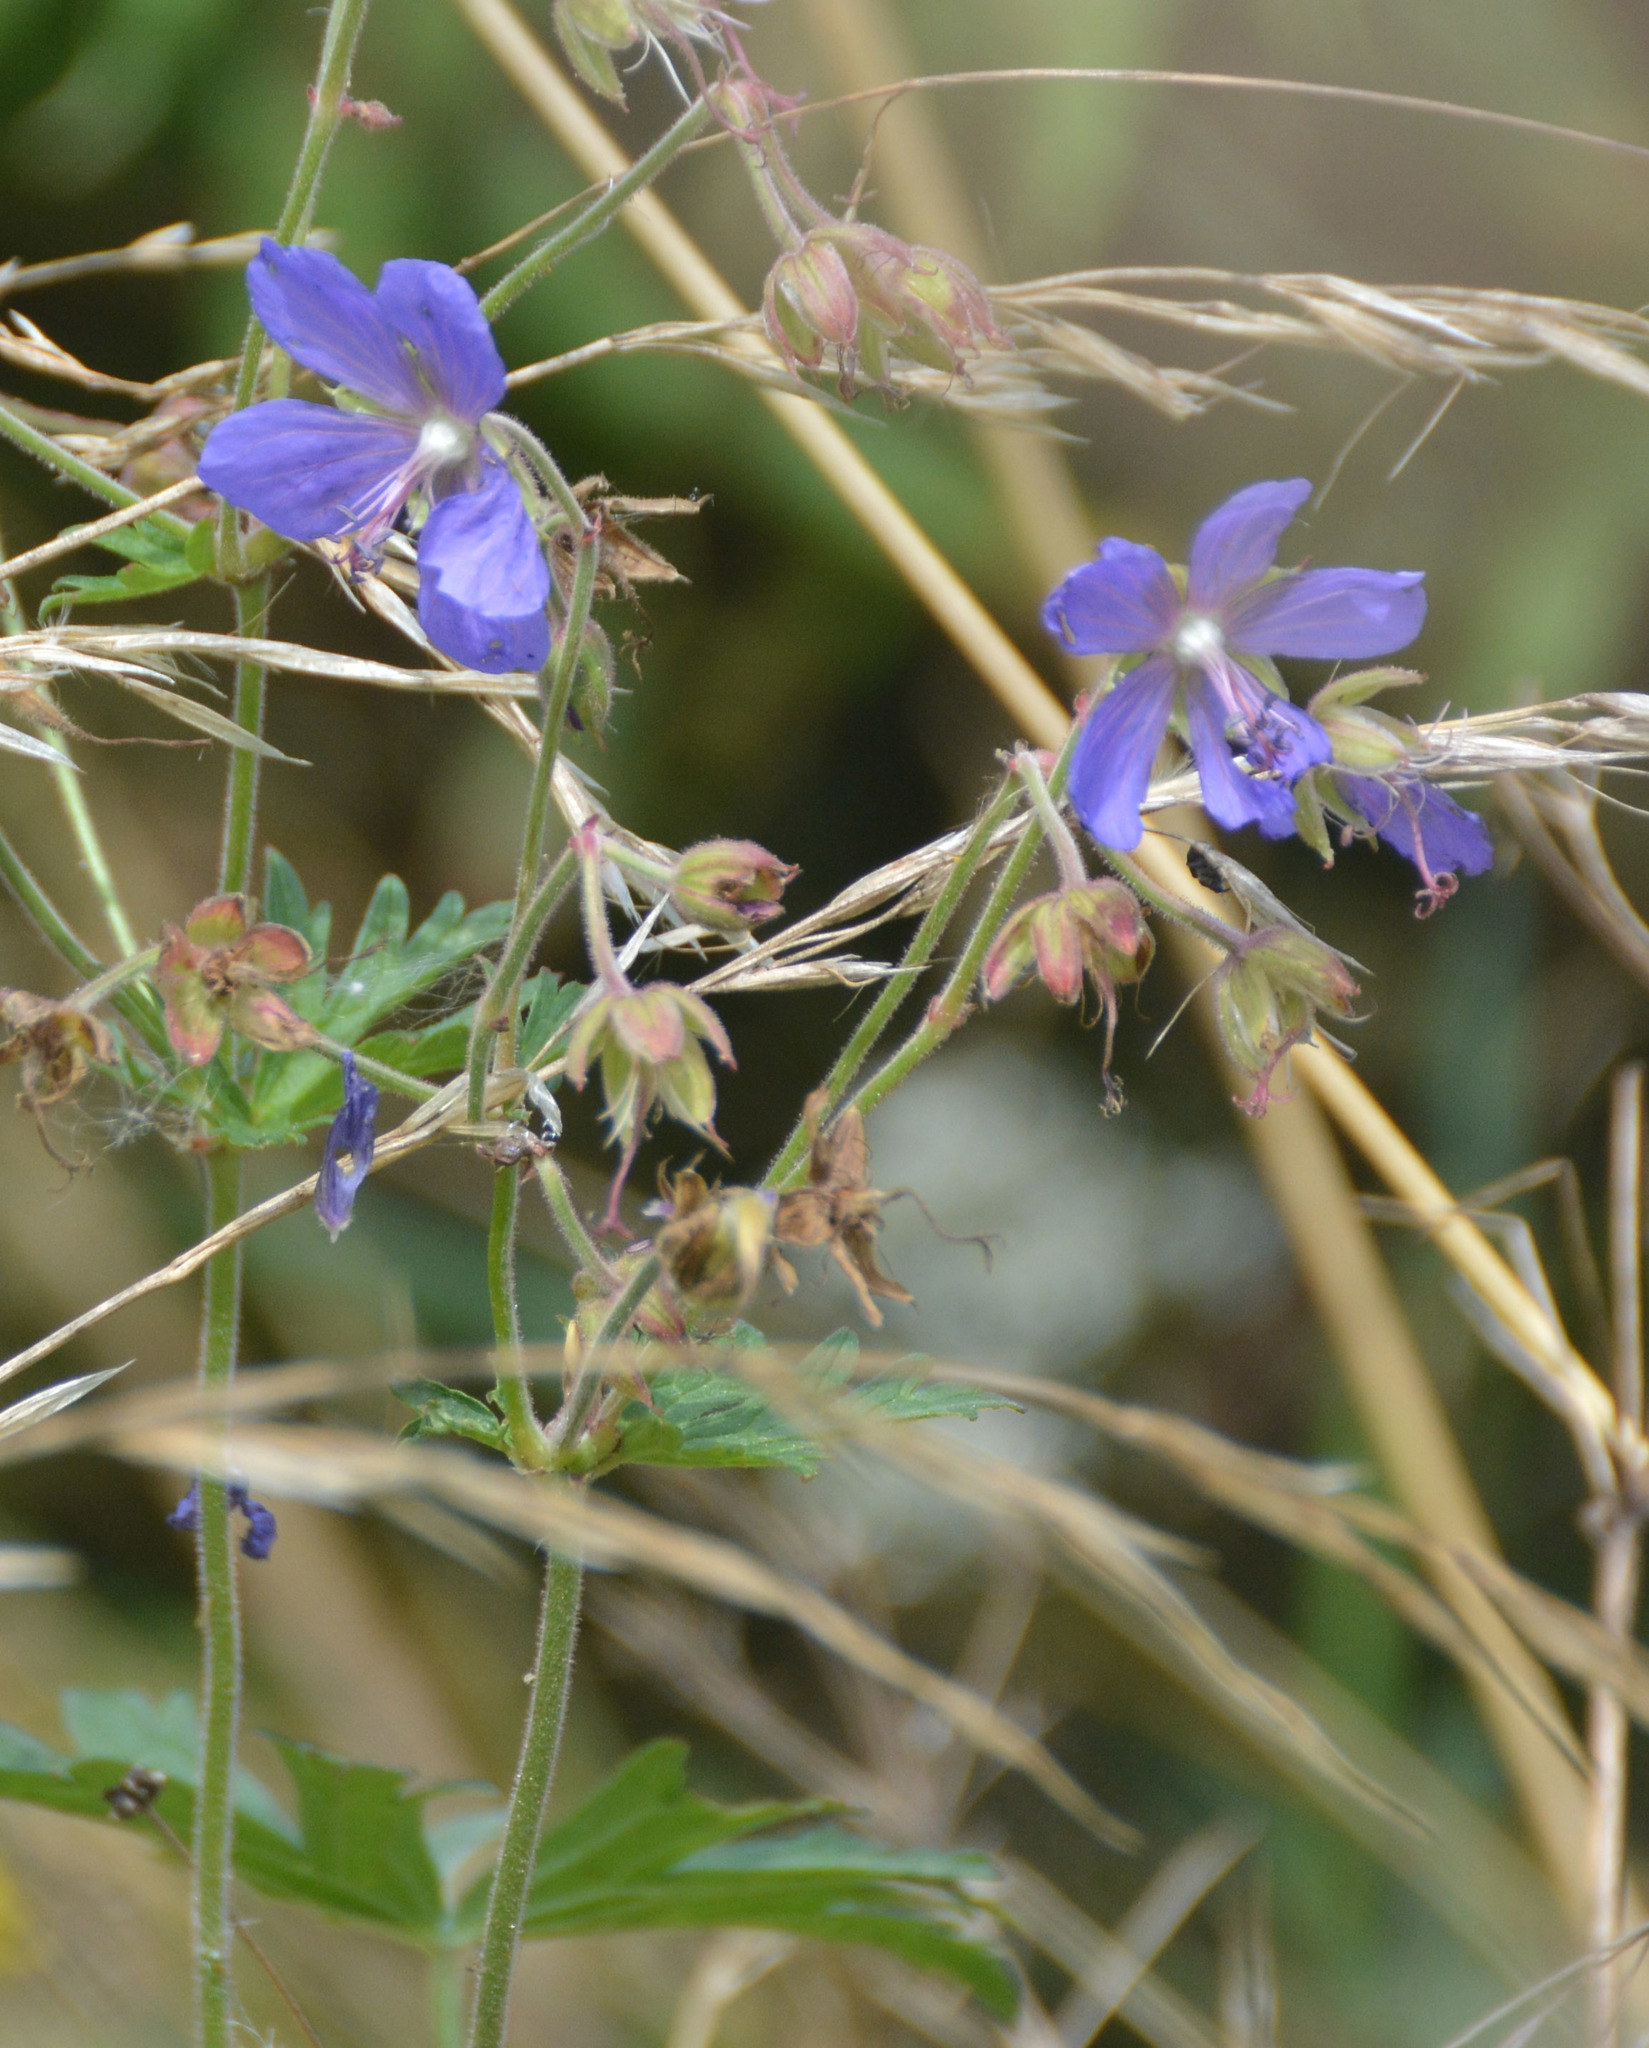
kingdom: Plantae
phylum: Tracheophyta
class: Magnoliopsida
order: Geraniales
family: Geraniaceae
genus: Geranium
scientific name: Geranium pratense
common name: Meadow crane's-bill
